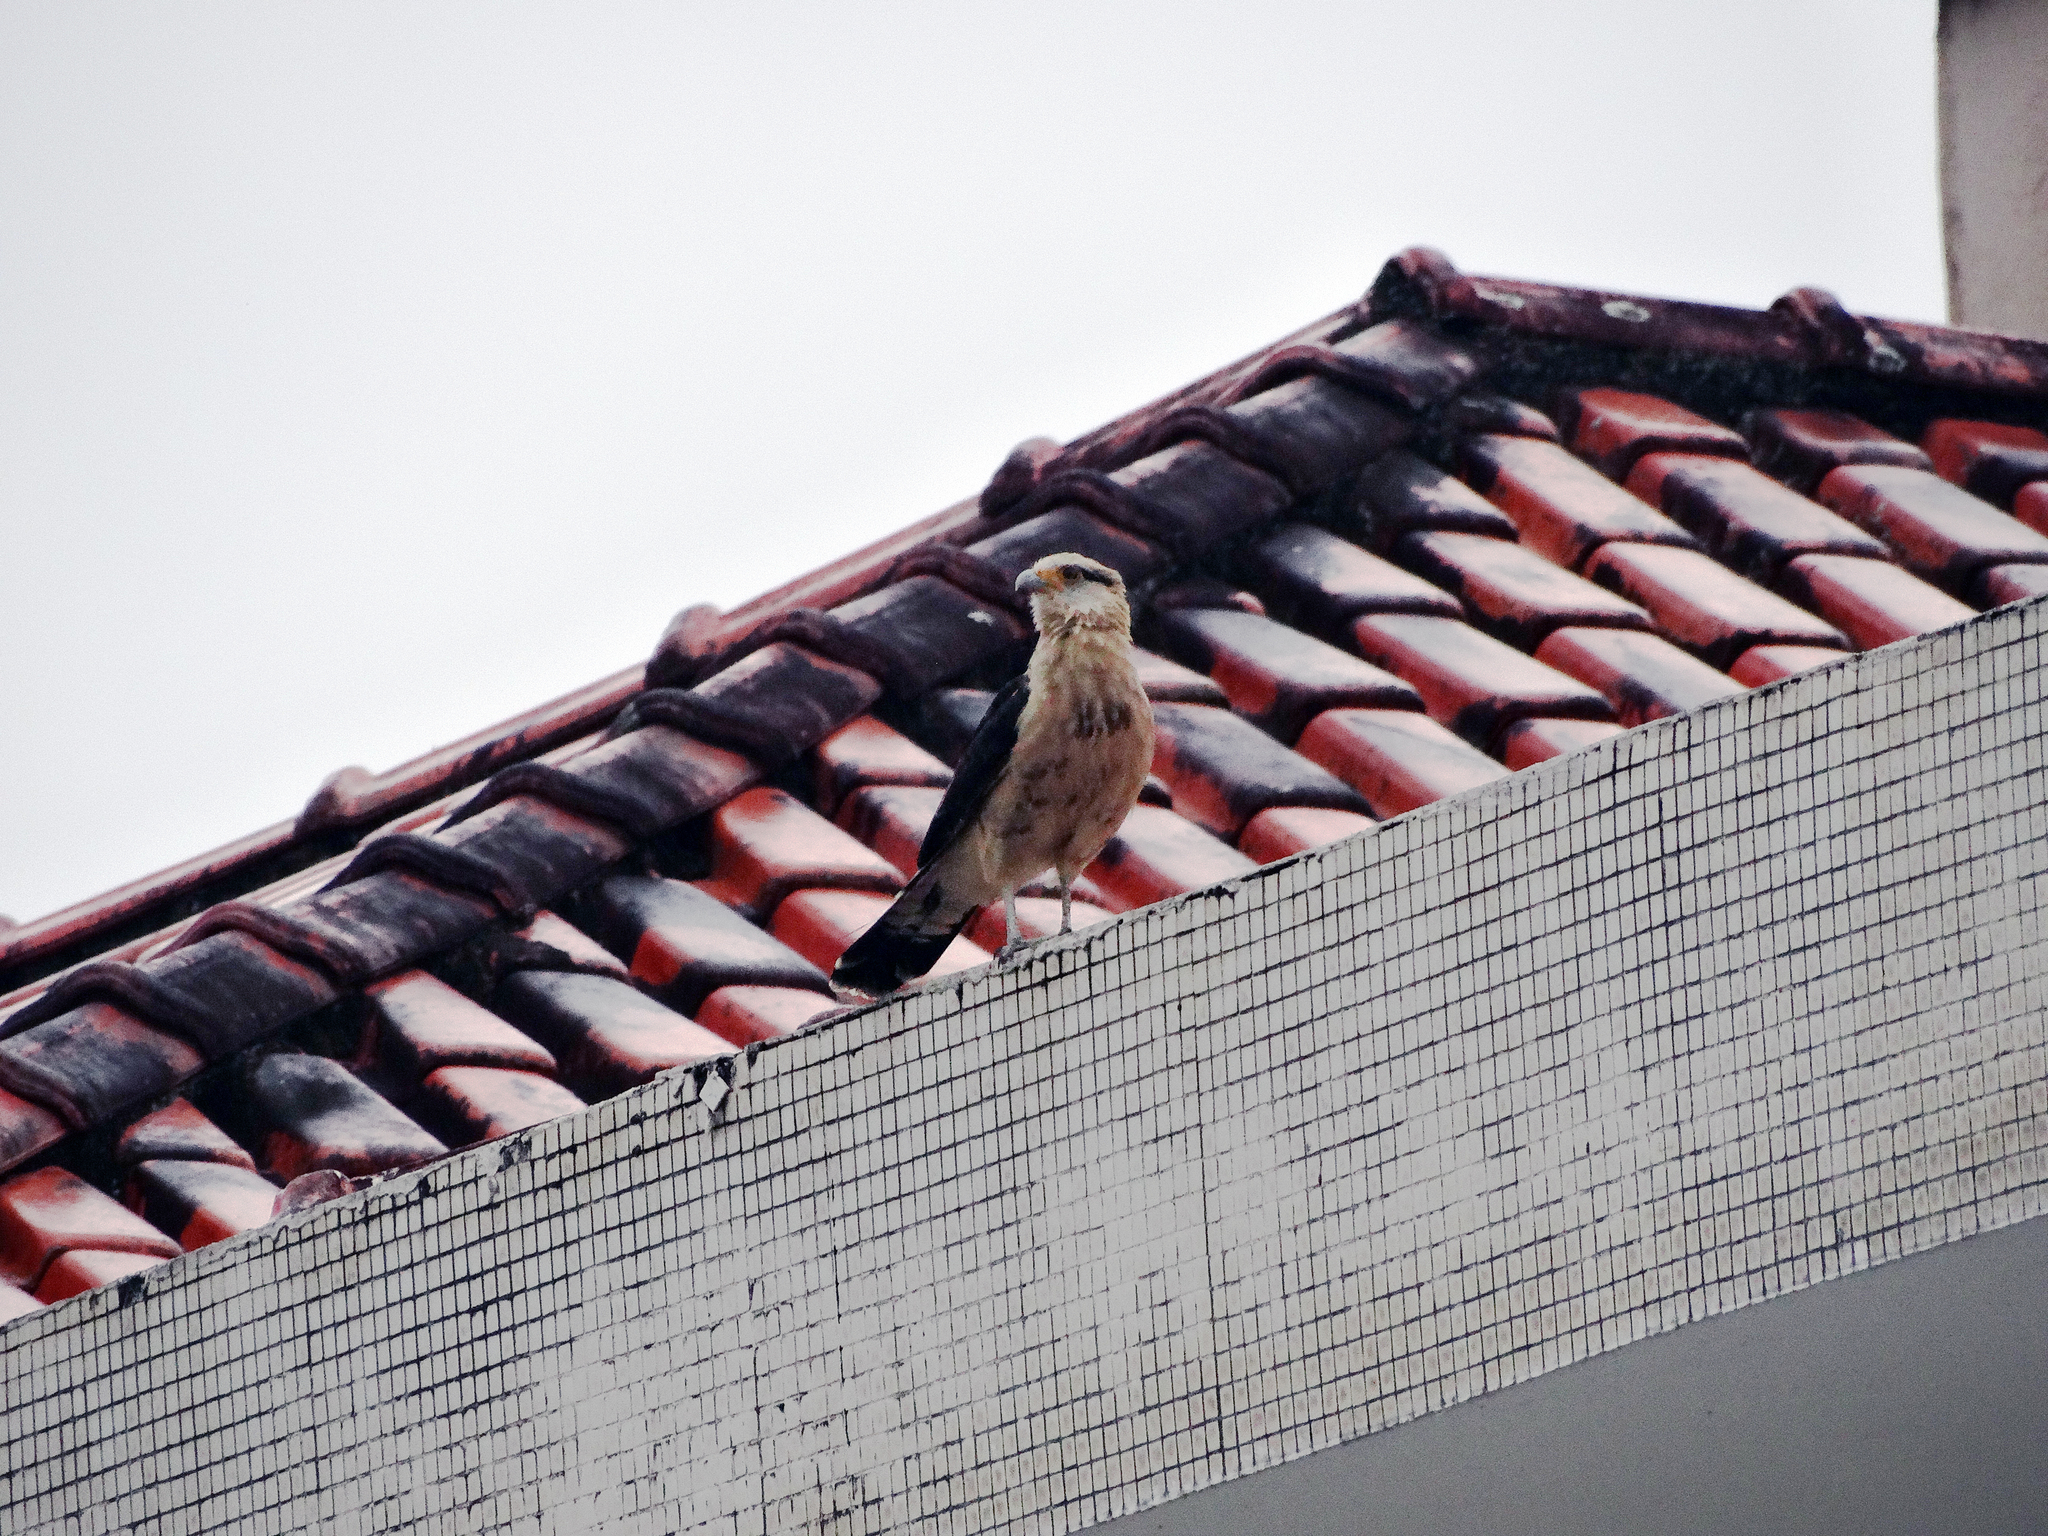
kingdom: Animalia
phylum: Chordata
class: Aves
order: Falconiformes
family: Falconidae
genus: Daptrius
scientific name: Daptrius
